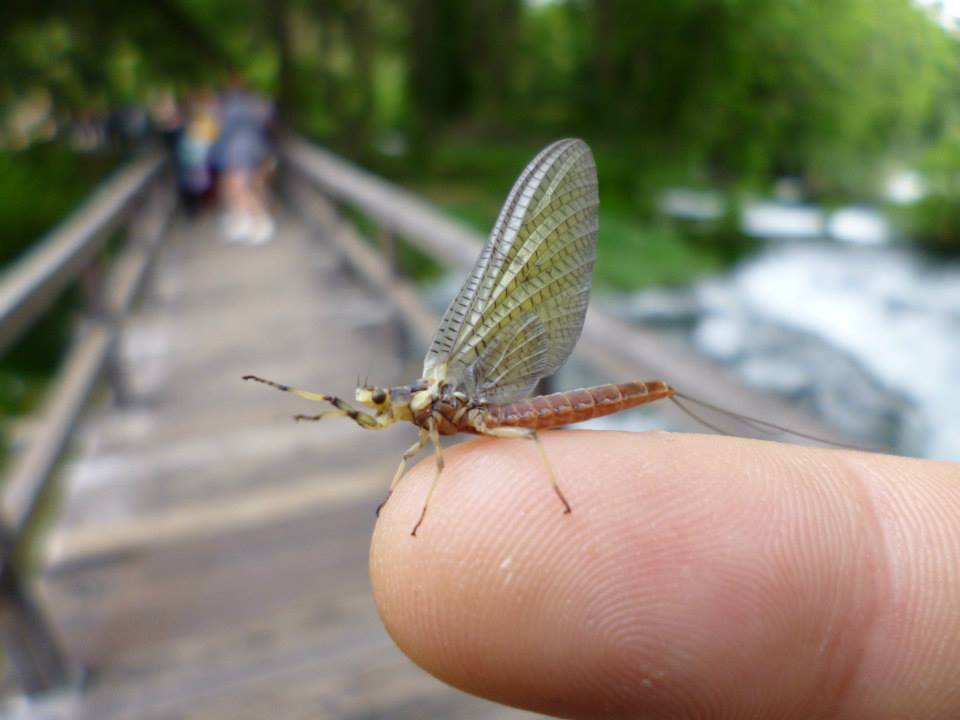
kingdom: Animalia
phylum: Arthropoda
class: Insecta
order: Ephemeroptera
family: Ephemeridae
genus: Ephemera
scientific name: Ephemera zettana
